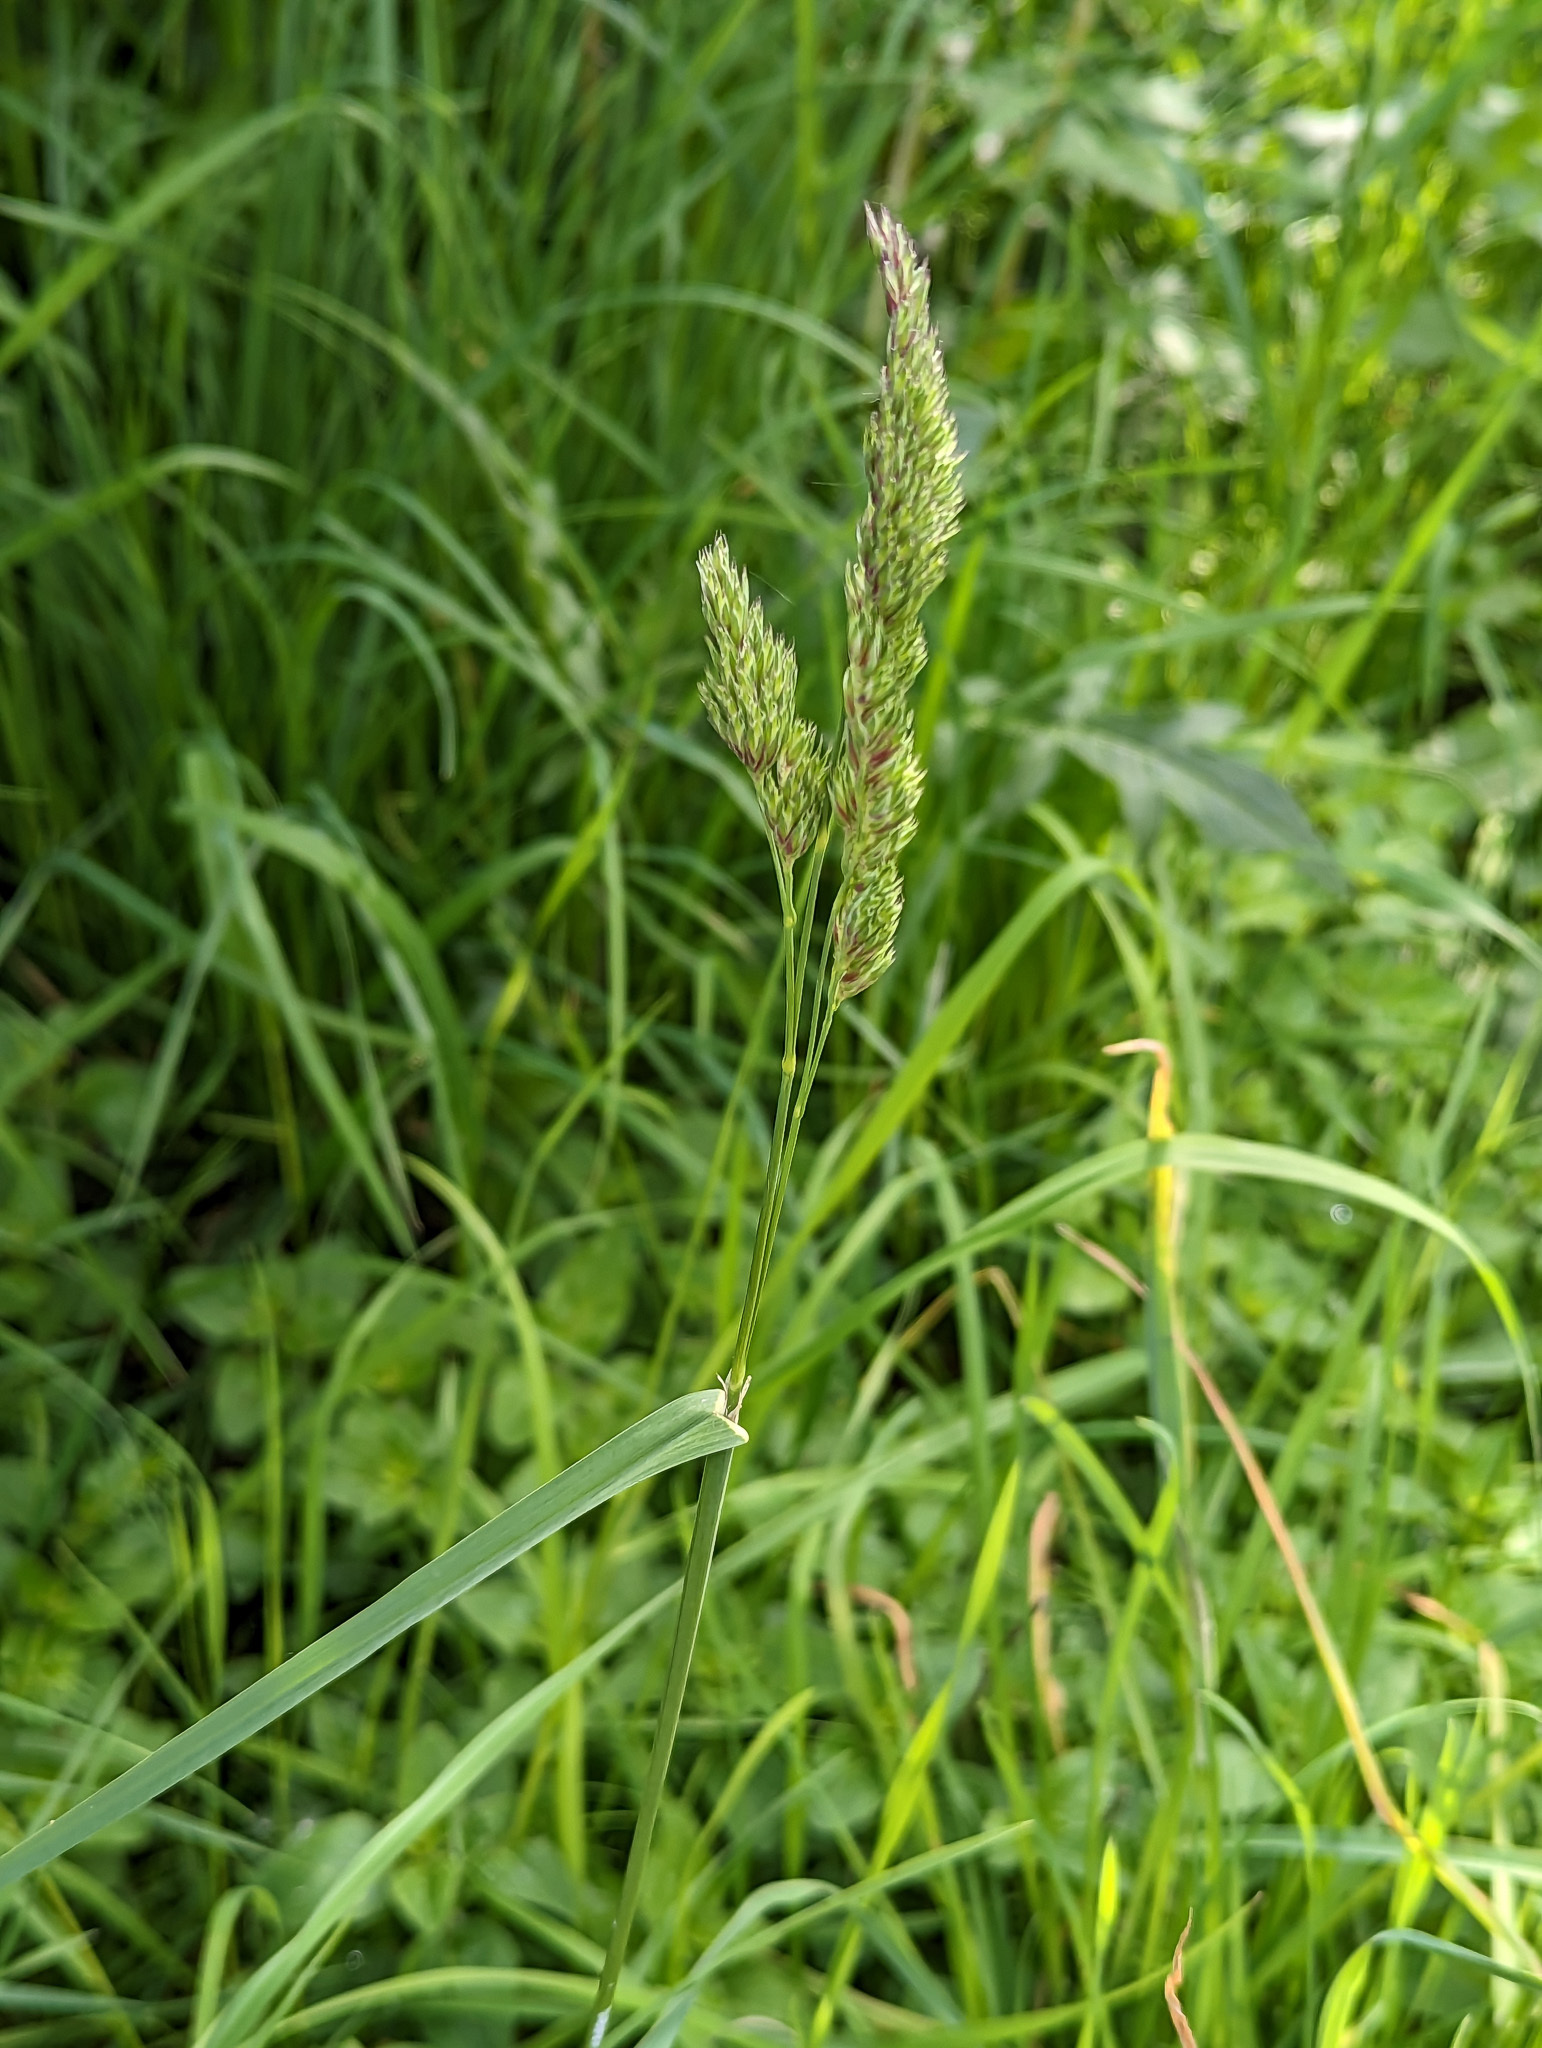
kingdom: Plantae
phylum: Tracheophyta
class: Liliopsida
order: Poales
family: Poaceae
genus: Dactylis
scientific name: Dactylis glomerata
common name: Orchardgrass
